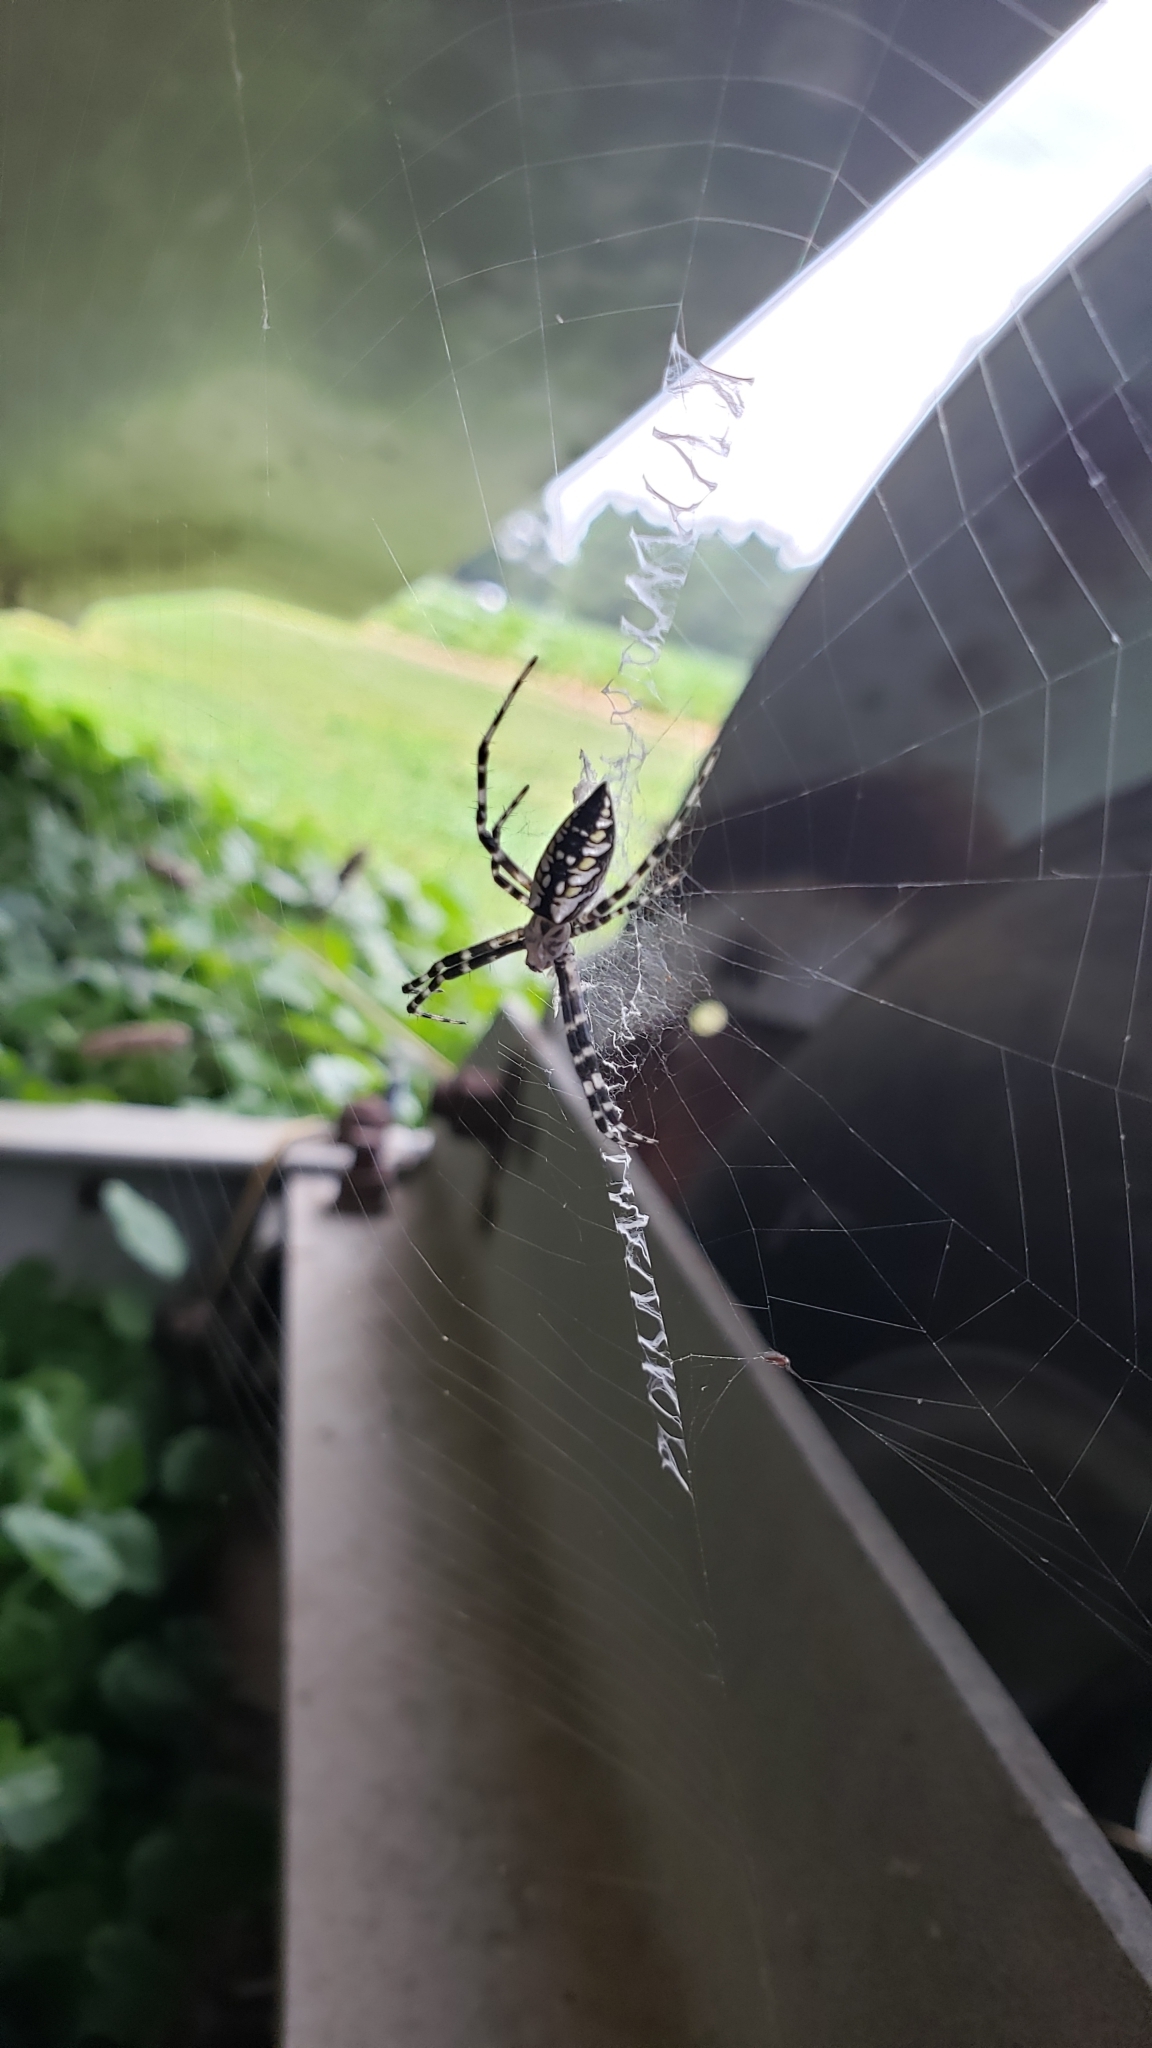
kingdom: Animalia
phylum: Arthropoda
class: Arachnida
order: Araneae
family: Araneidae
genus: Argiope
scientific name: Argiope aurantia
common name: Orb weavers
